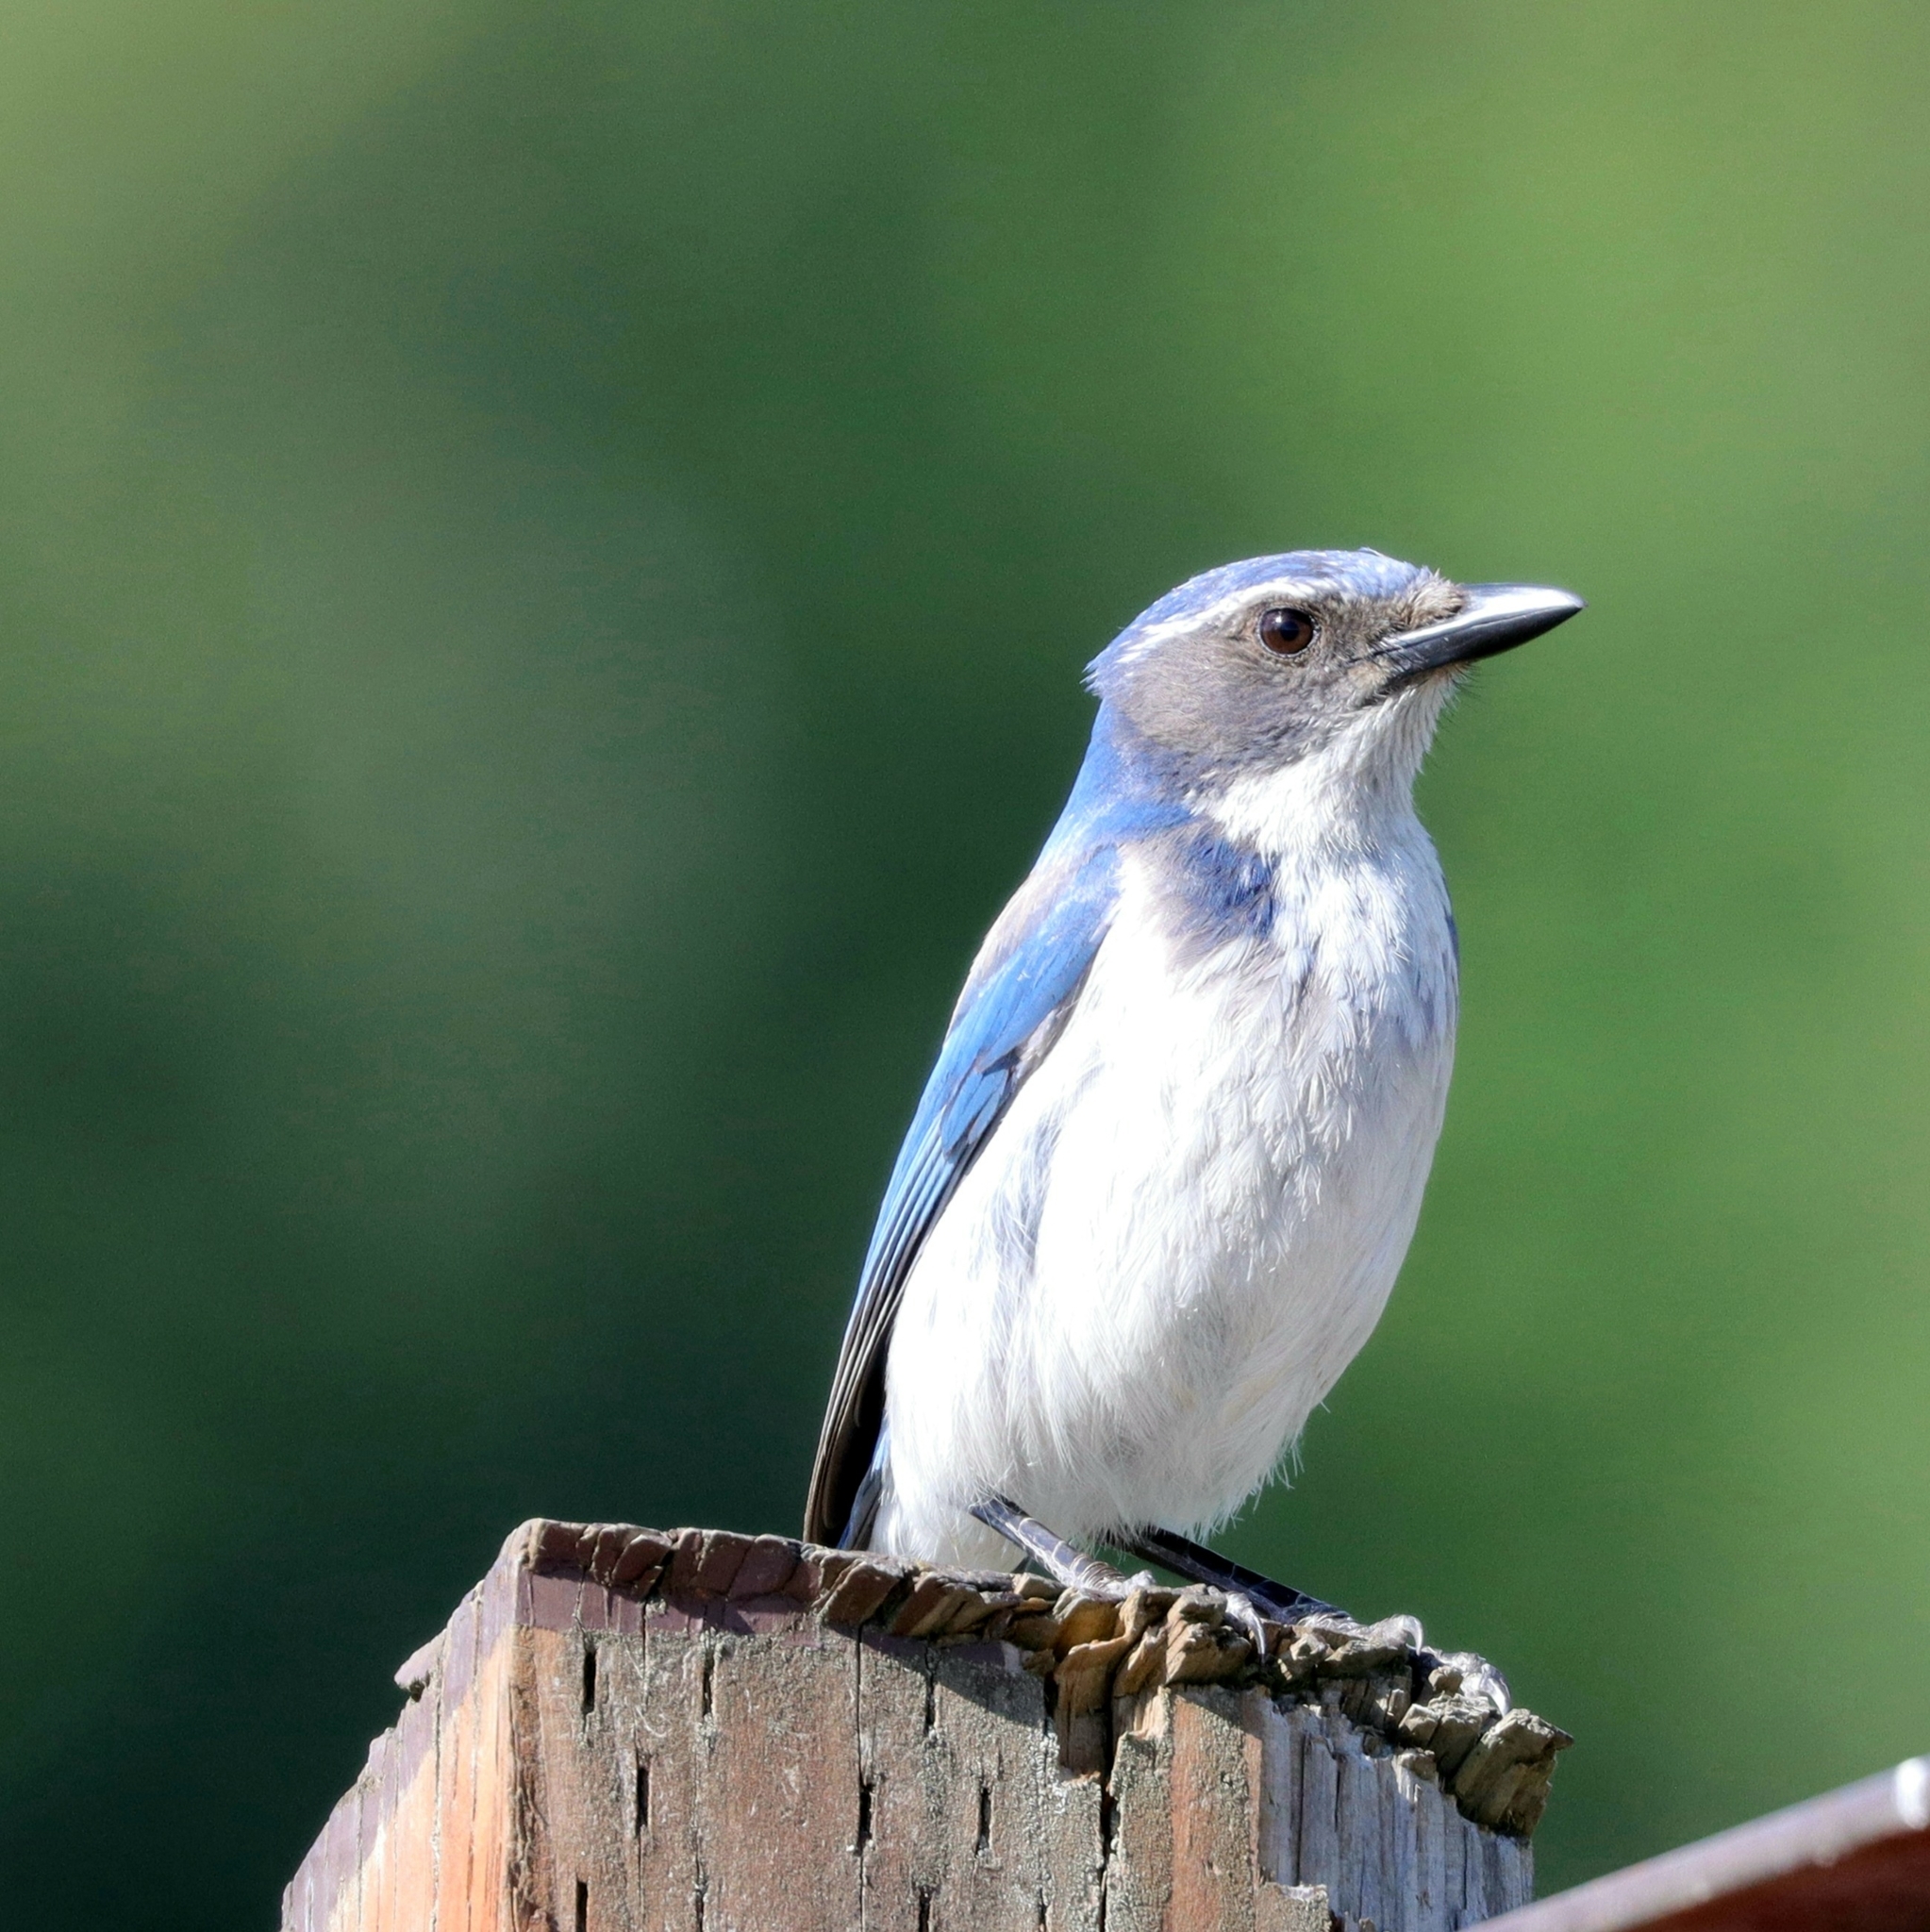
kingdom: Animalia
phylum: Chordata
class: Aves
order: Passeriformes
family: Corvidae
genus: Aphelocoma
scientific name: Aphelocoma californica
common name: California scrub-jay
